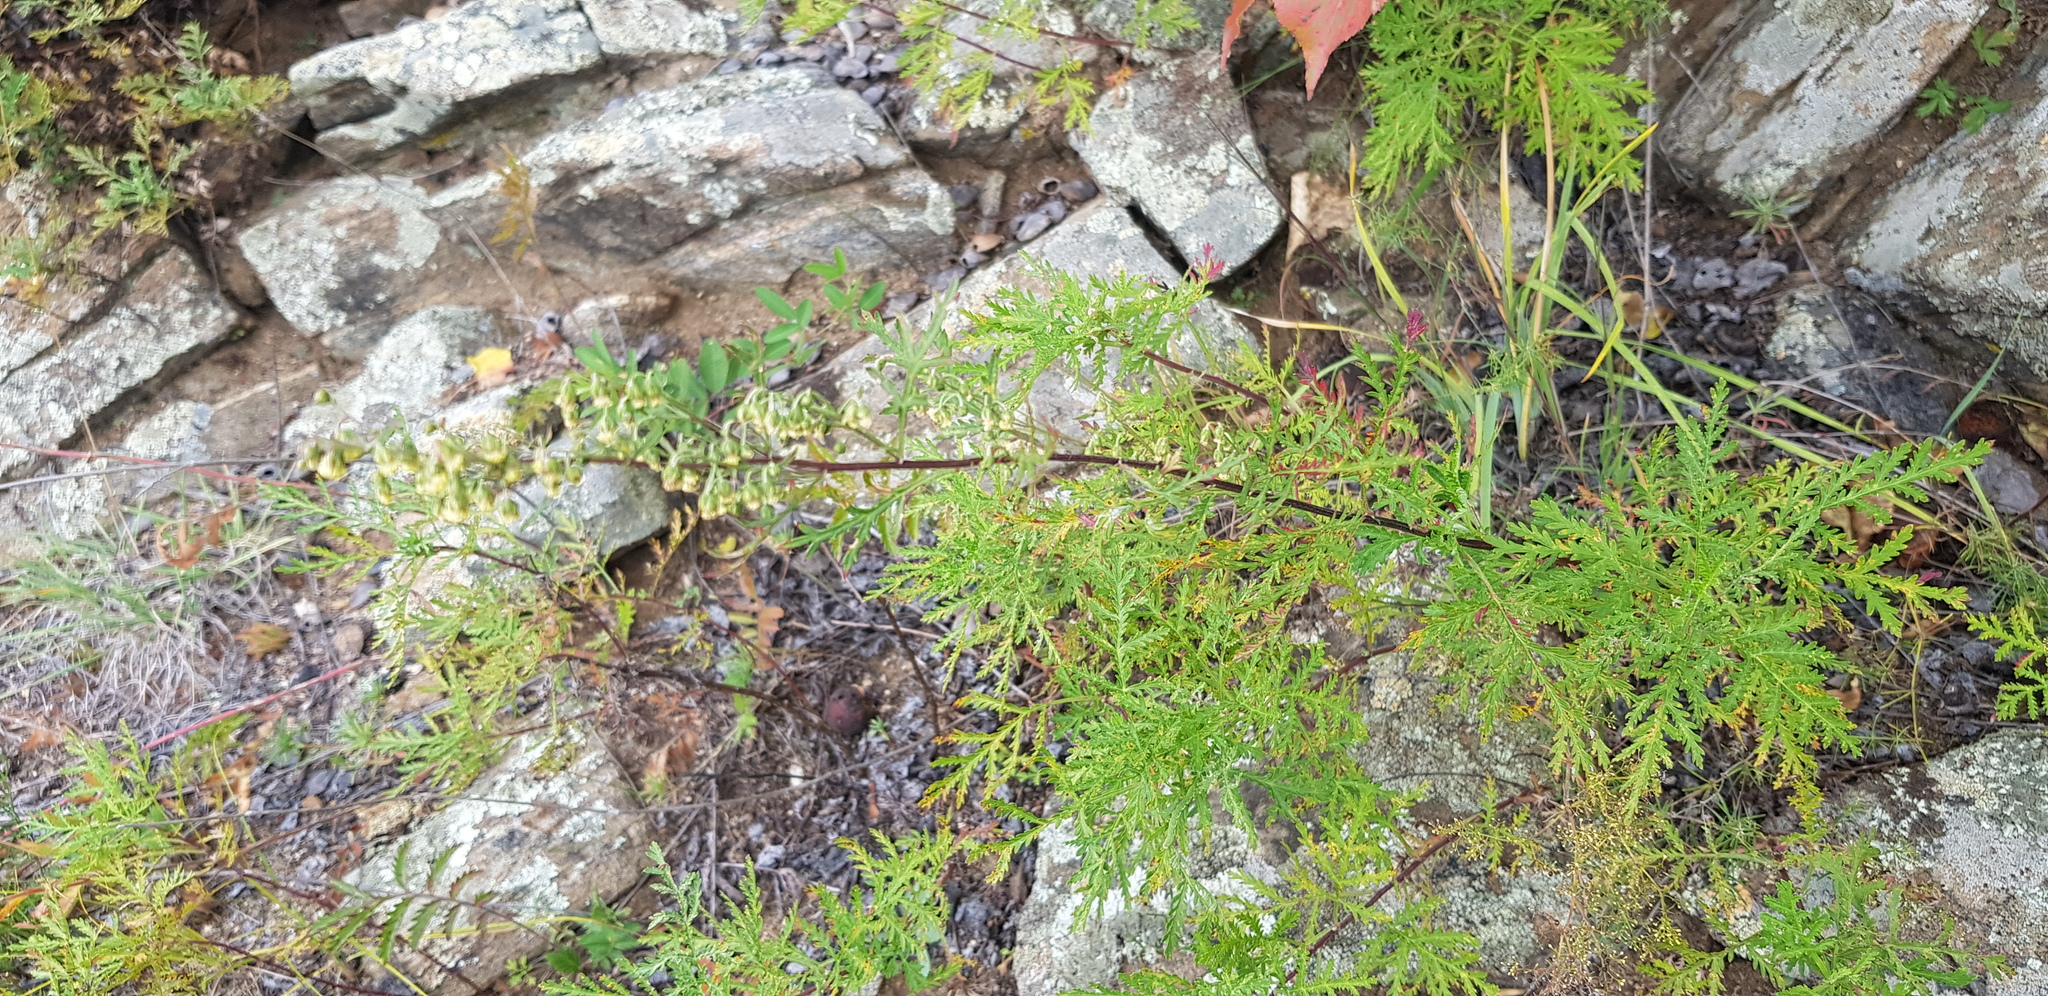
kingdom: Plantae
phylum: Tracheophyta
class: Magnoliopsida
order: Asterales
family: Asteraceae
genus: Artemisia
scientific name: Artemisia gmelinii
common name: Gmelin's wormwood
